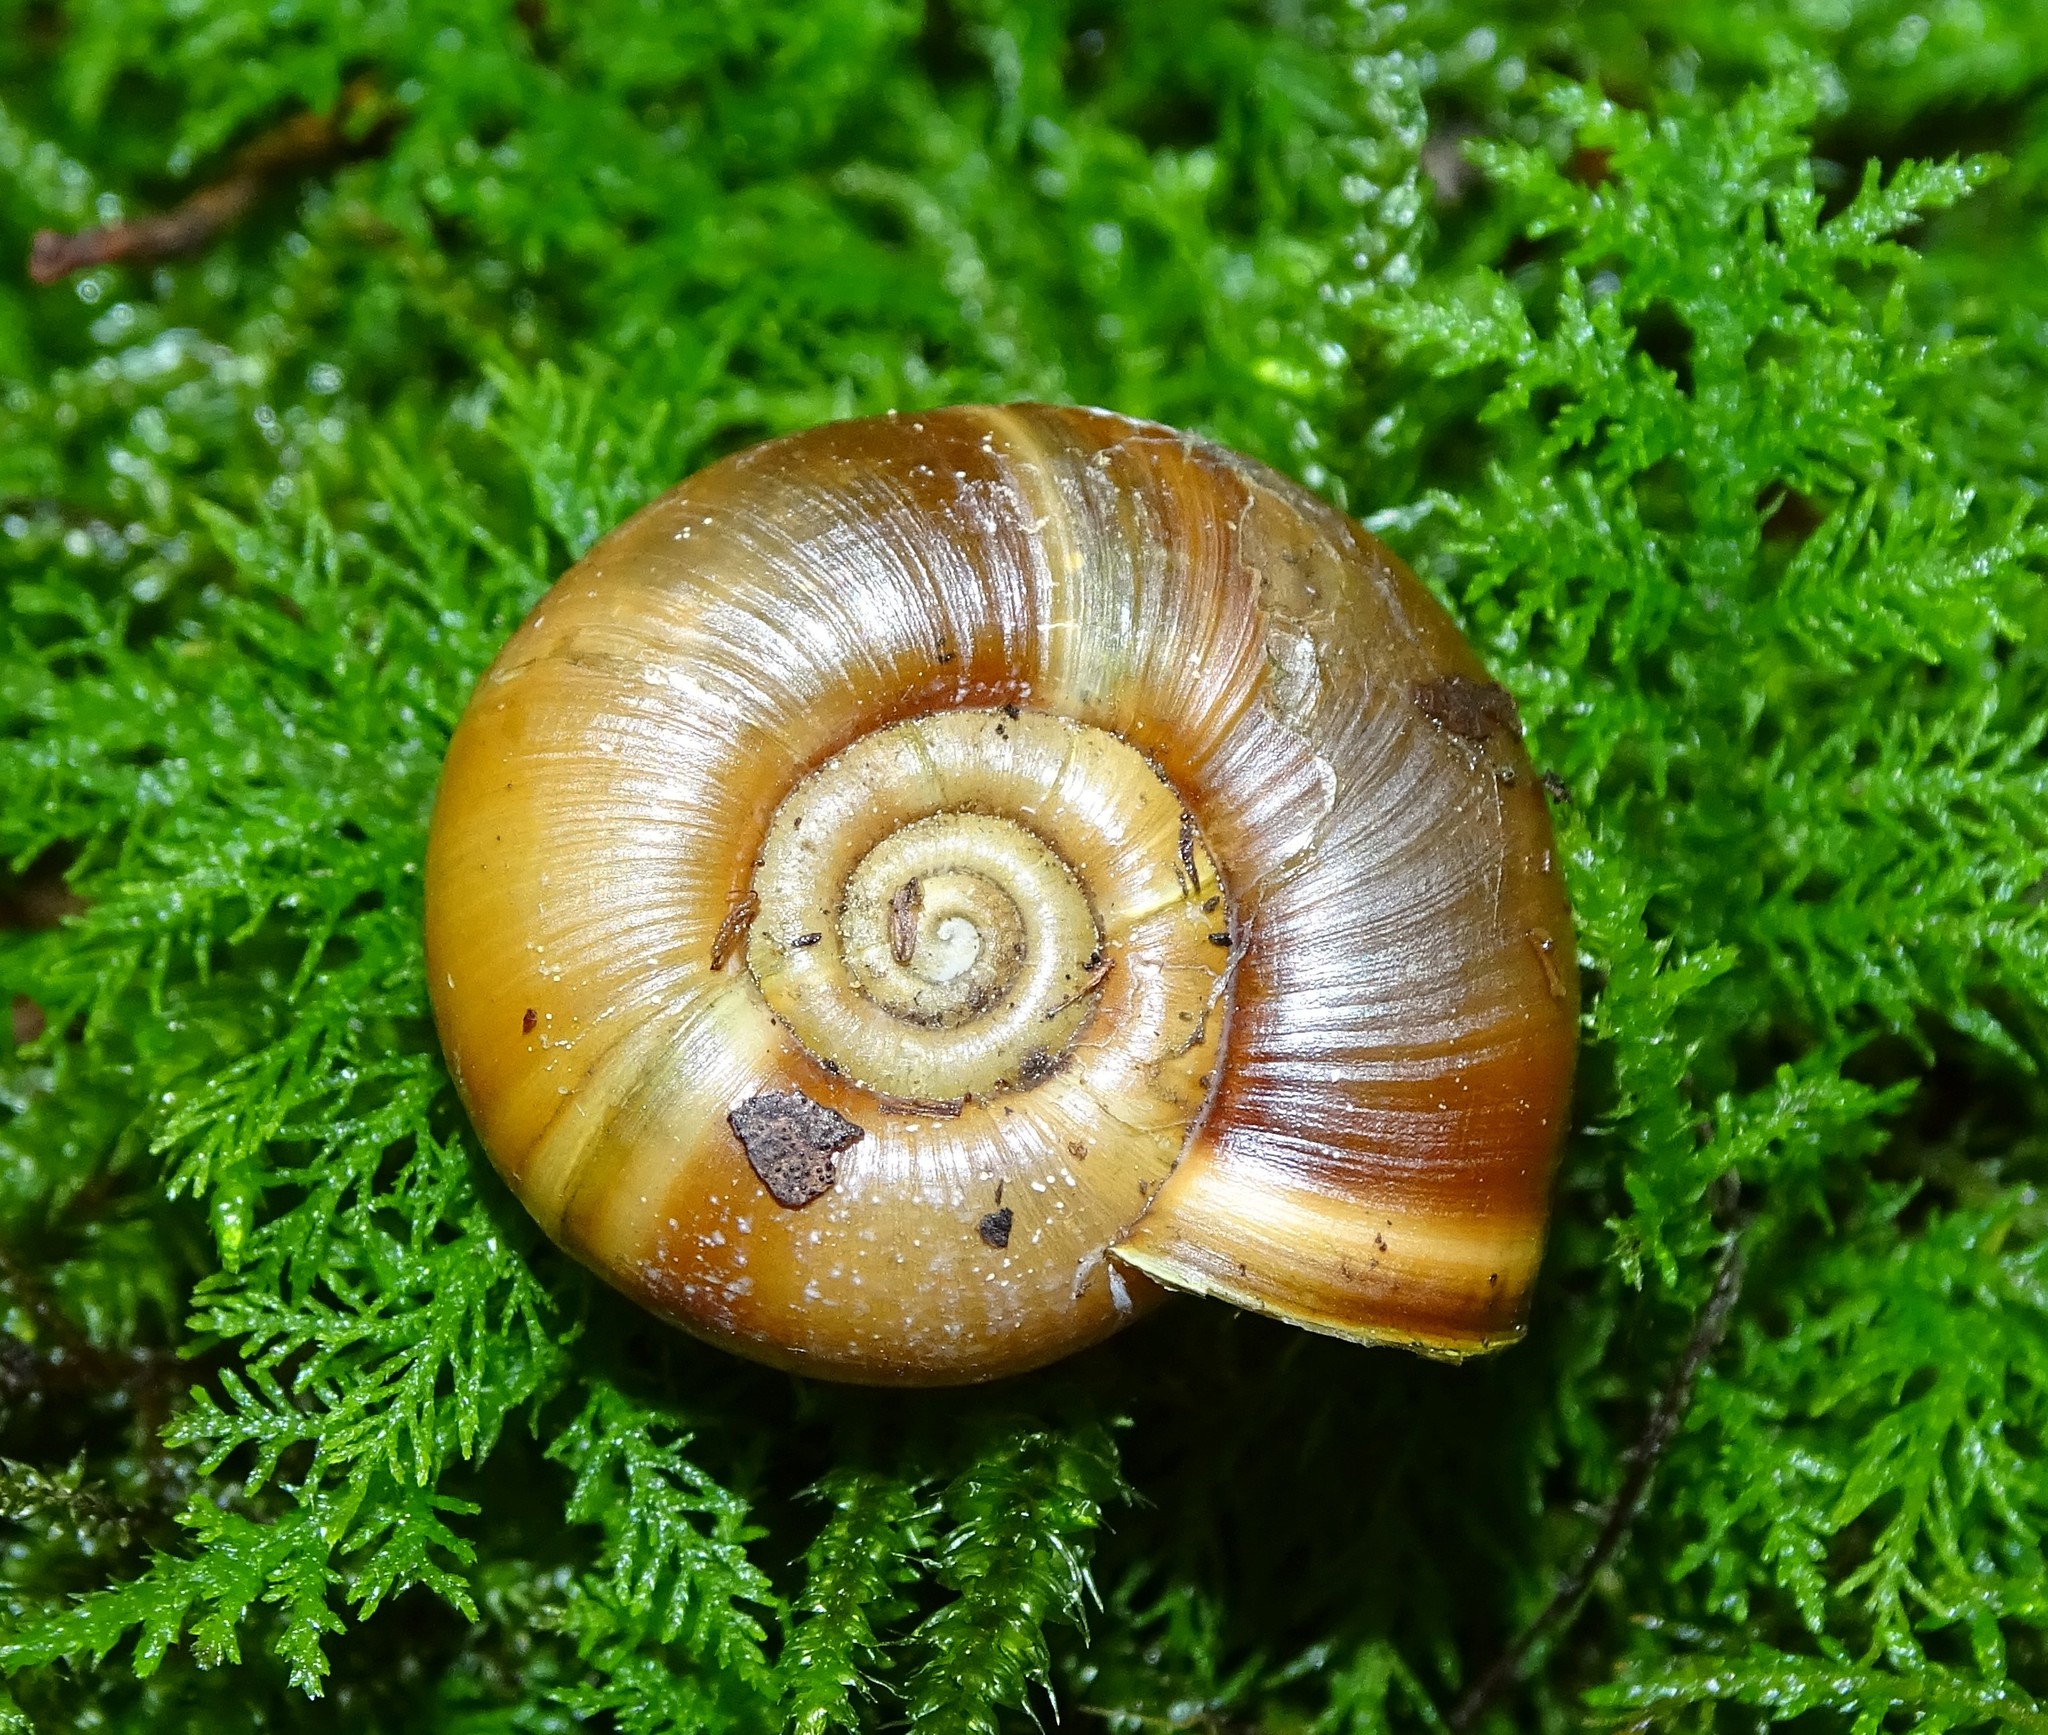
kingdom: Animalia
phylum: Mollusca
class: Gastropoda
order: Stylommatophora
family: Elonidae
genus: Elona
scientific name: Elona quimperiana
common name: Quimper snail
